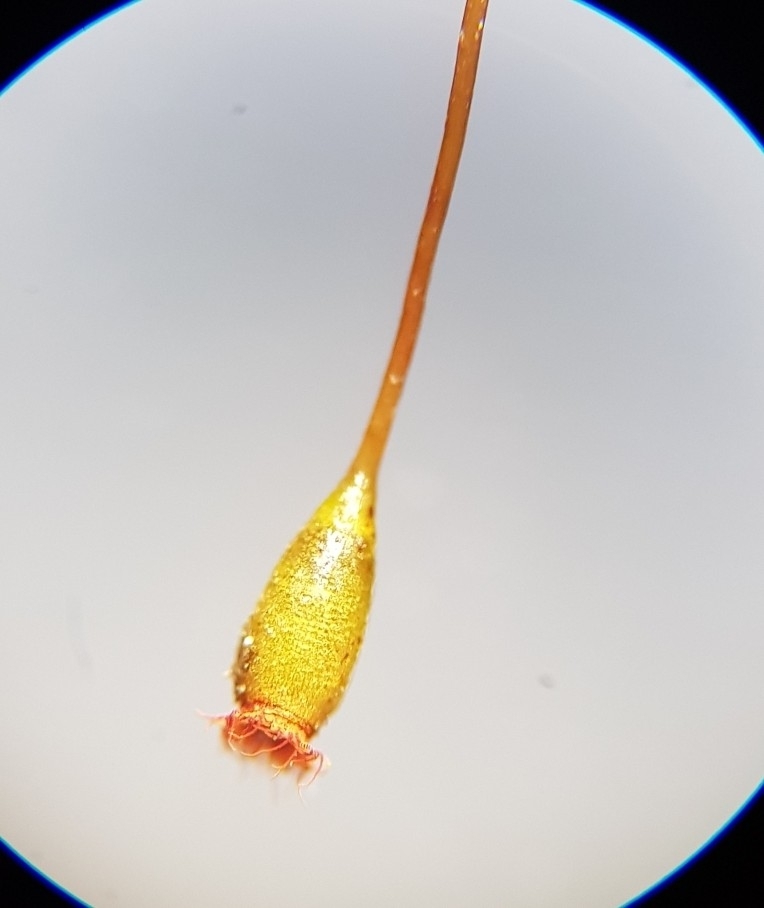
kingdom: Plantae
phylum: Bryophyta
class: Bryopsida
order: Dicranales
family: Fissidentaceae
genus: Fissidens
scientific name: Fissidens bryoides
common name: Lesser pocket moss
